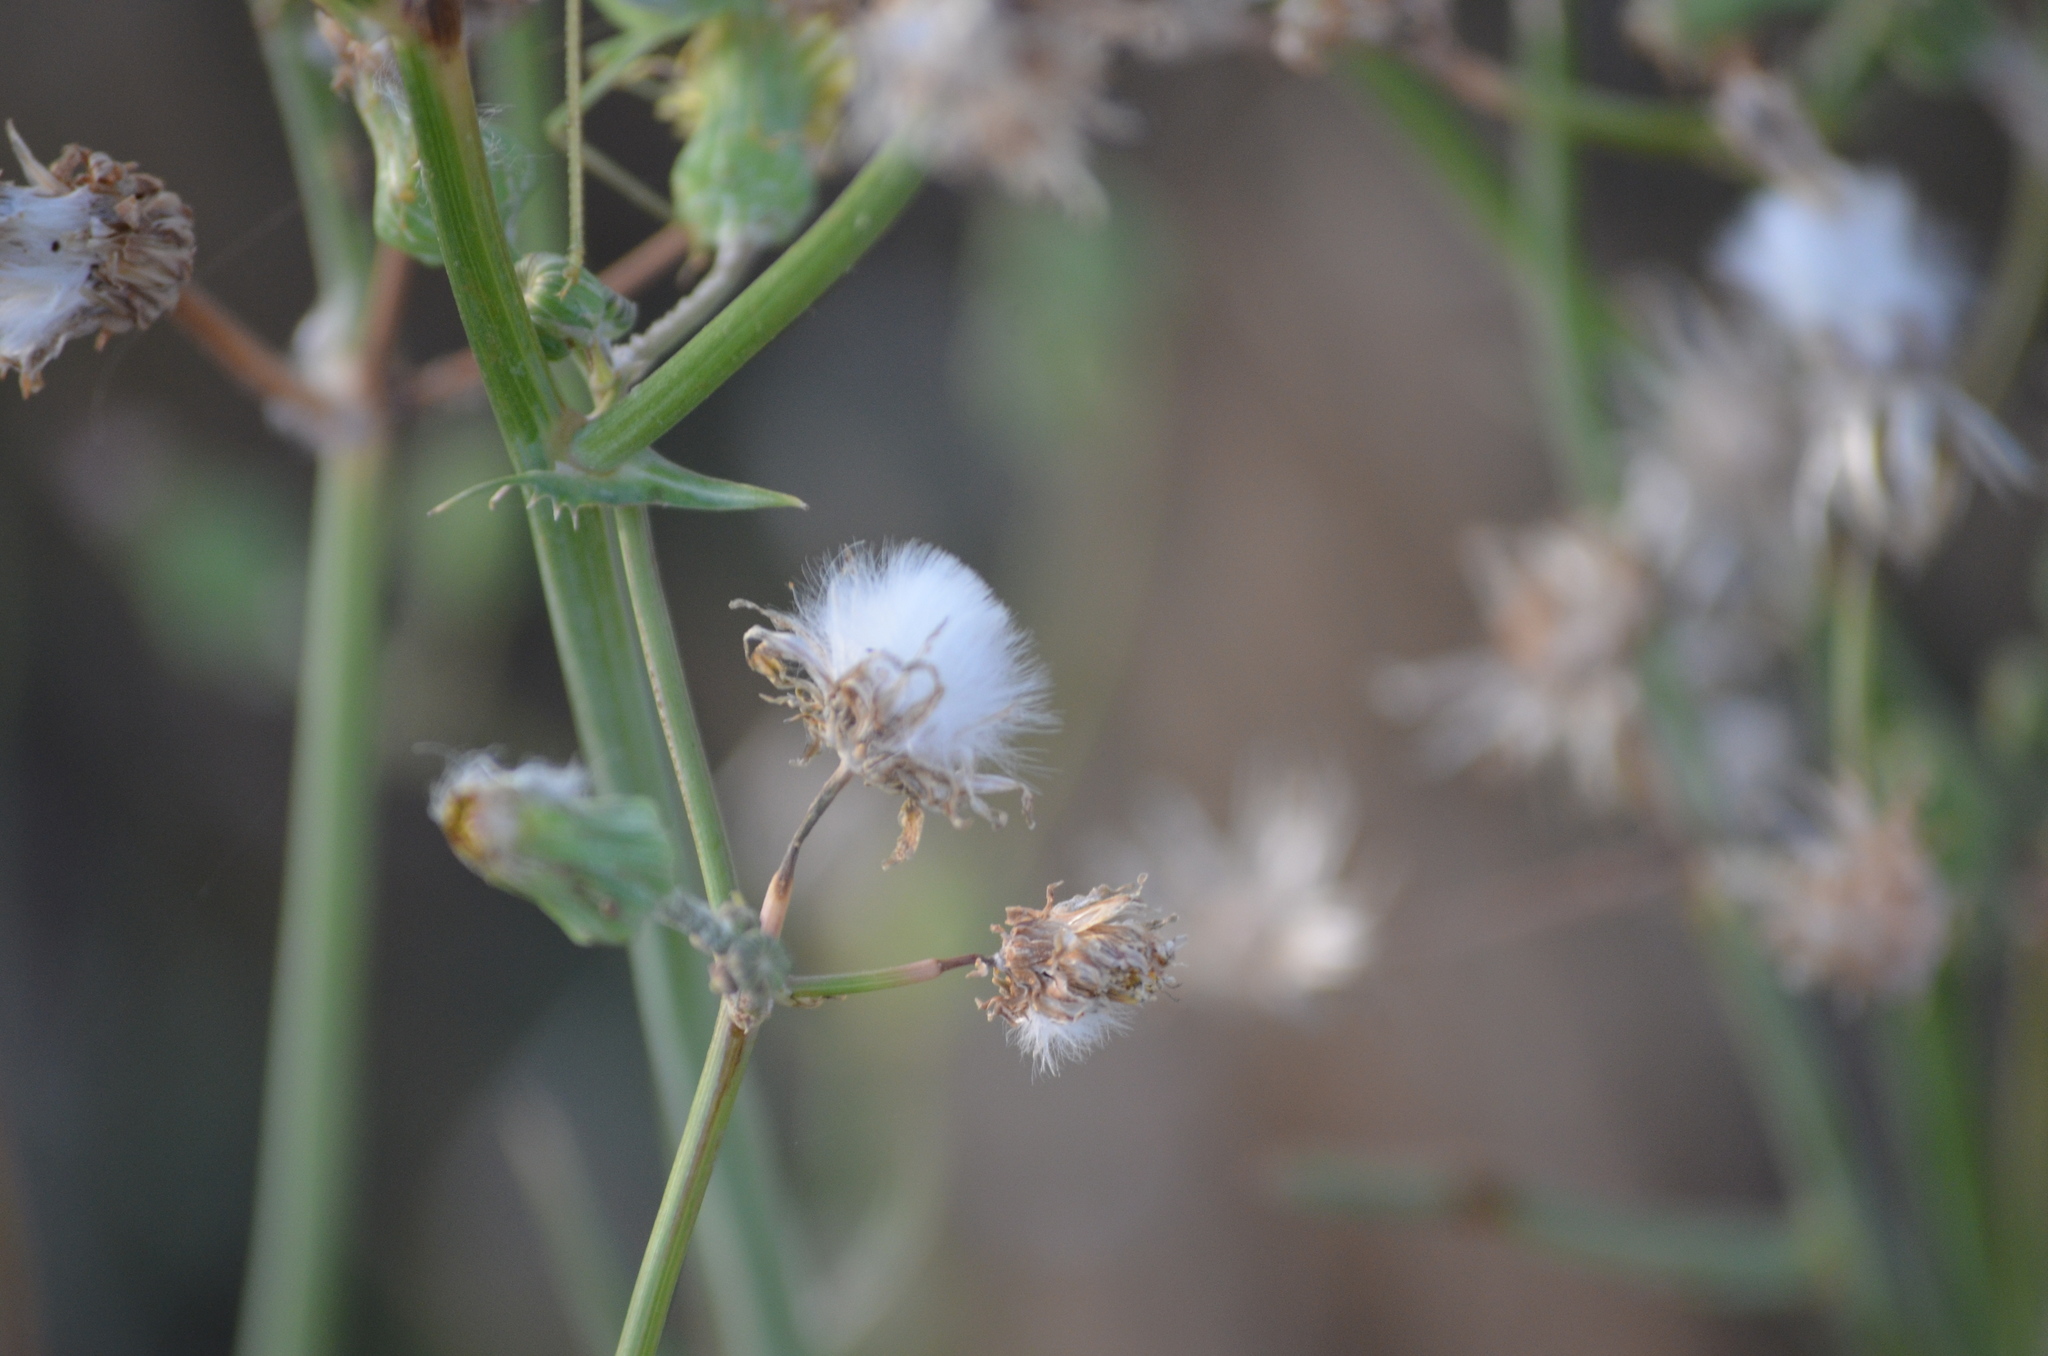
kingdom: Plantae
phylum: Tracheophyta
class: Magnoliopsida
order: Asterales
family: Asteraceae
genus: Sonchus
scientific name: Sonchus oleraceus
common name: Common sowthistle
